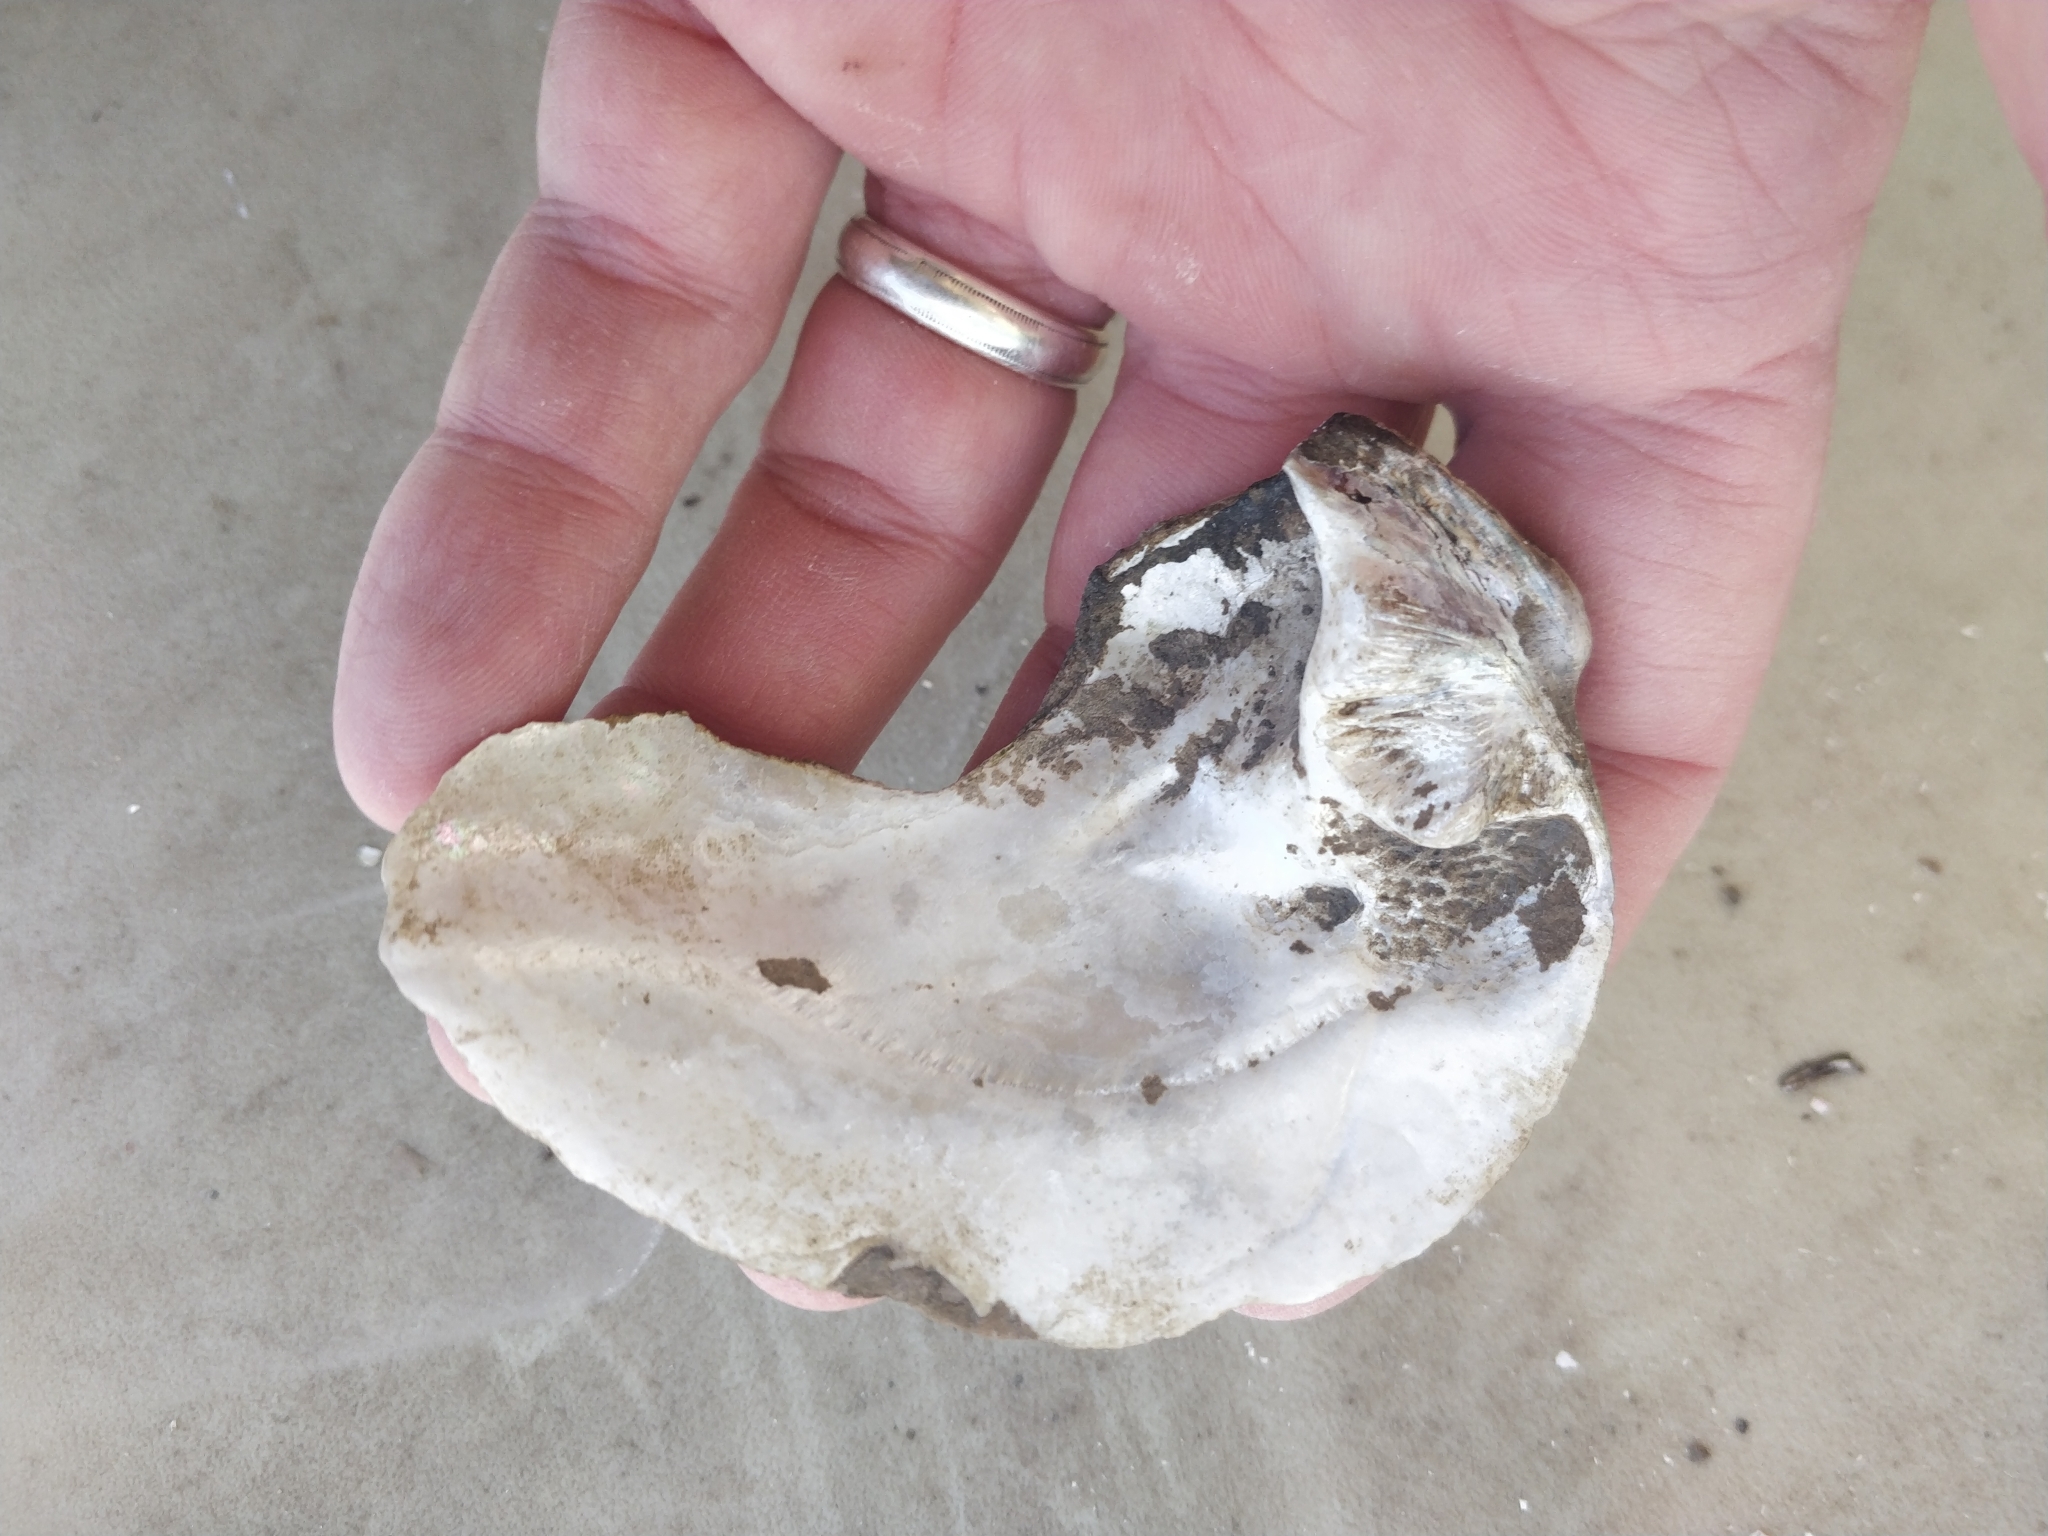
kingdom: Animalia
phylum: Mollusca
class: Bivalvia
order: Unionida
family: Unionidae
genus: Amblema
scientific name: Amblema plicata
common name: Threeridge
